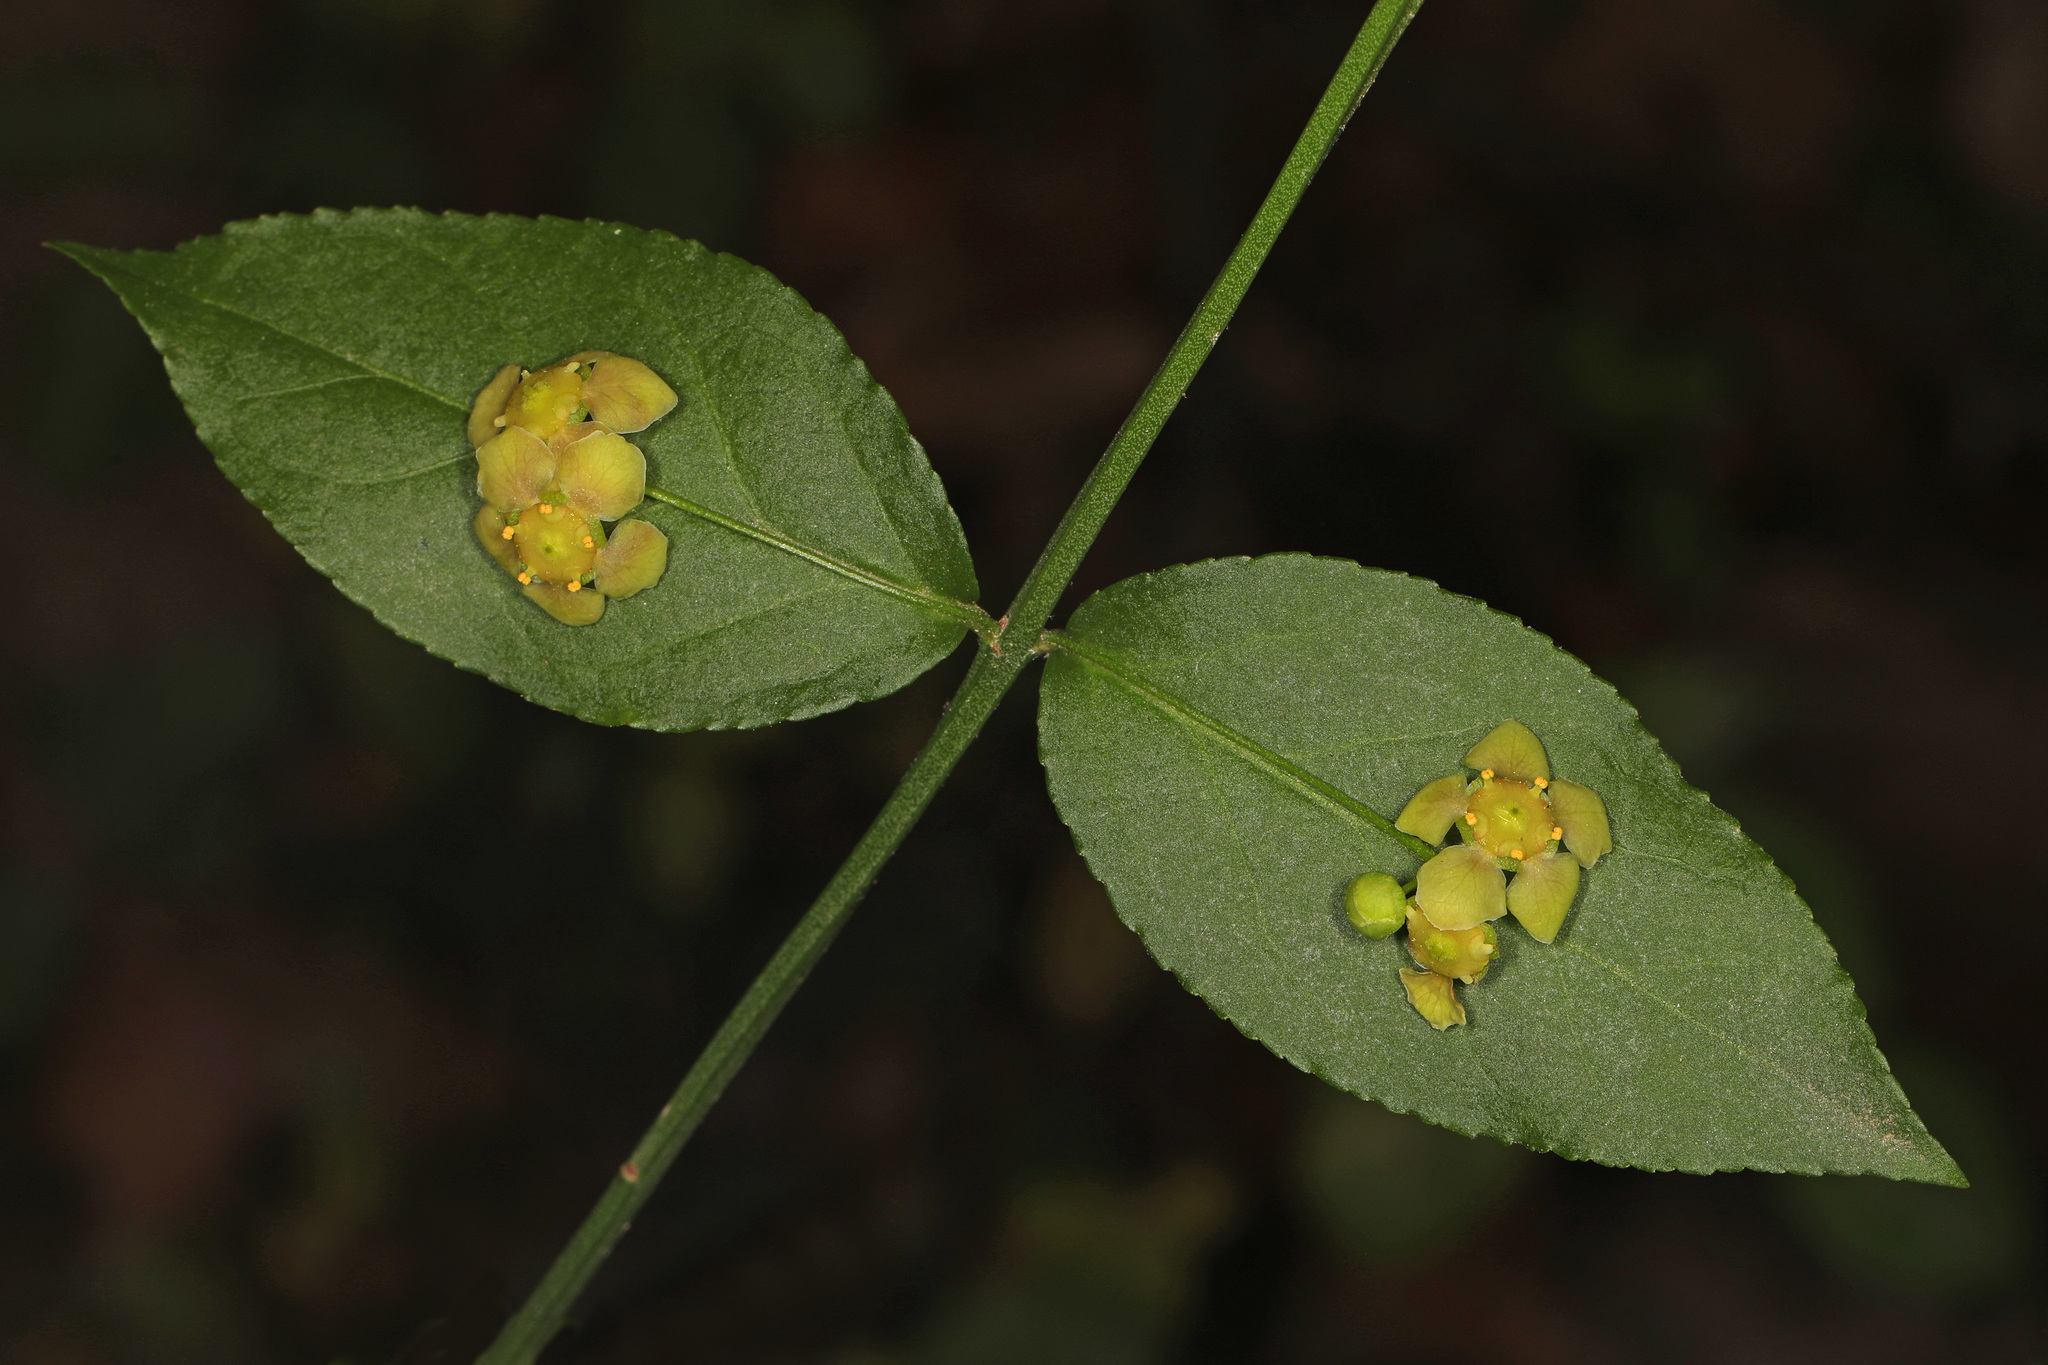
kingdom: Plantae
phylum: Tracheophyta
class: Magnoliopsida
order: Celastrales
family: Celastraceae
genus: Euonymus
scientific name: Euonymus americanus
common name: Bursting-heart
